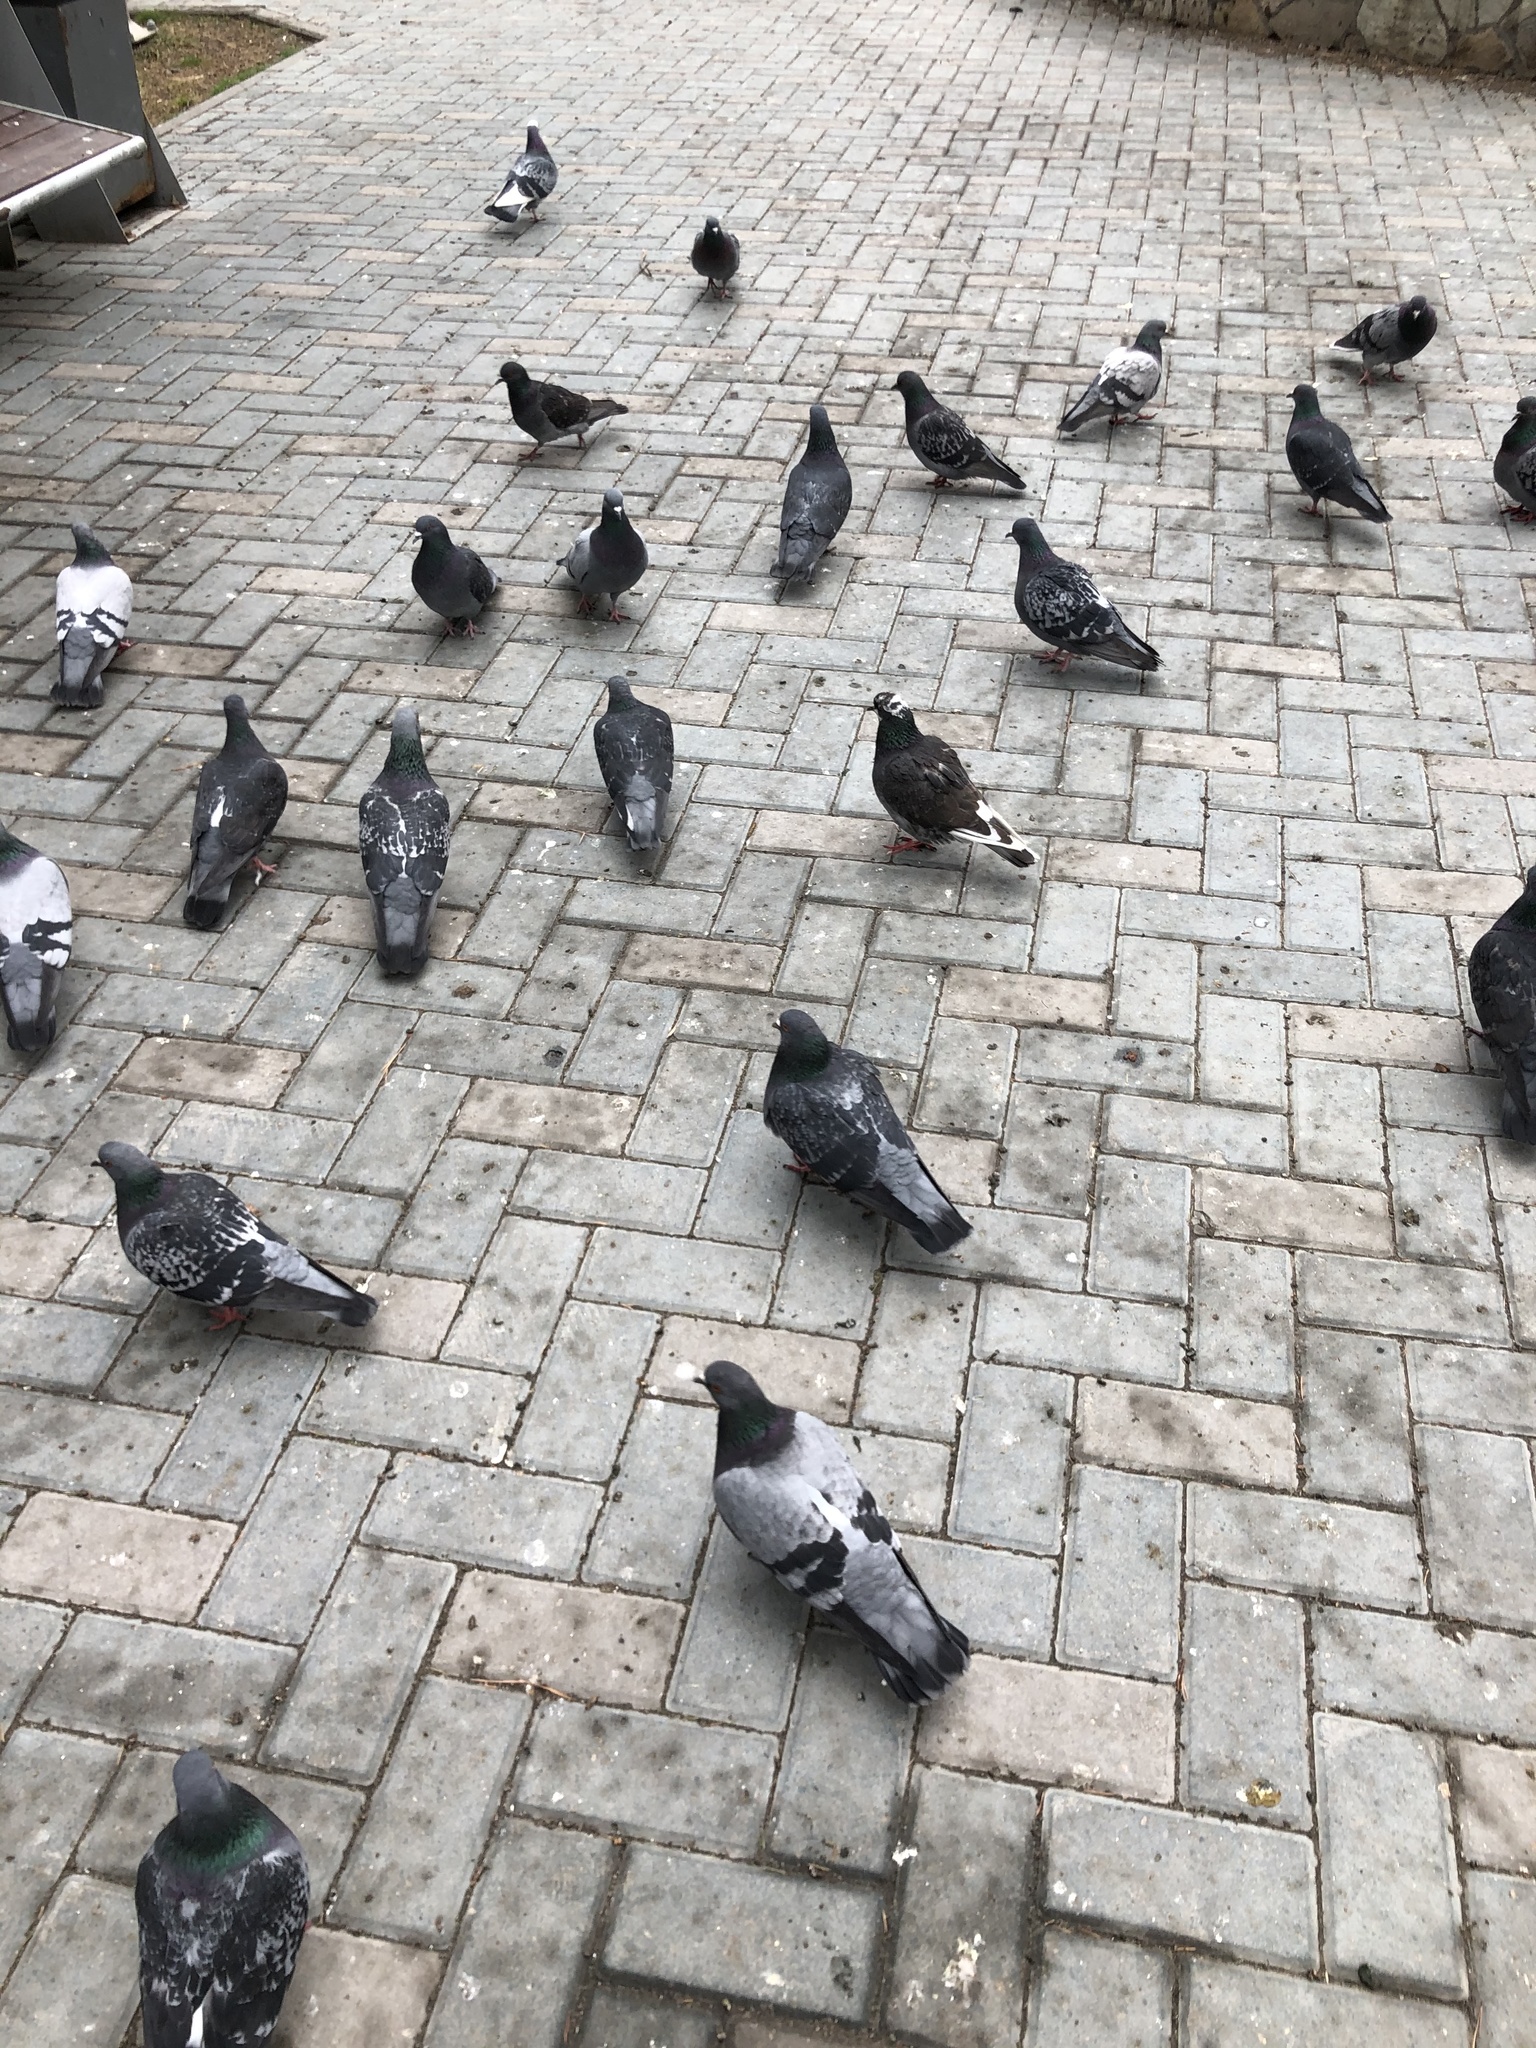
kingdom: Animalia
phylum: Chordata
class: Aves
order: Columbiformes
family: Columbidae
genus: Columba
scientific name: Columba livia
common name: Rock pigeon
